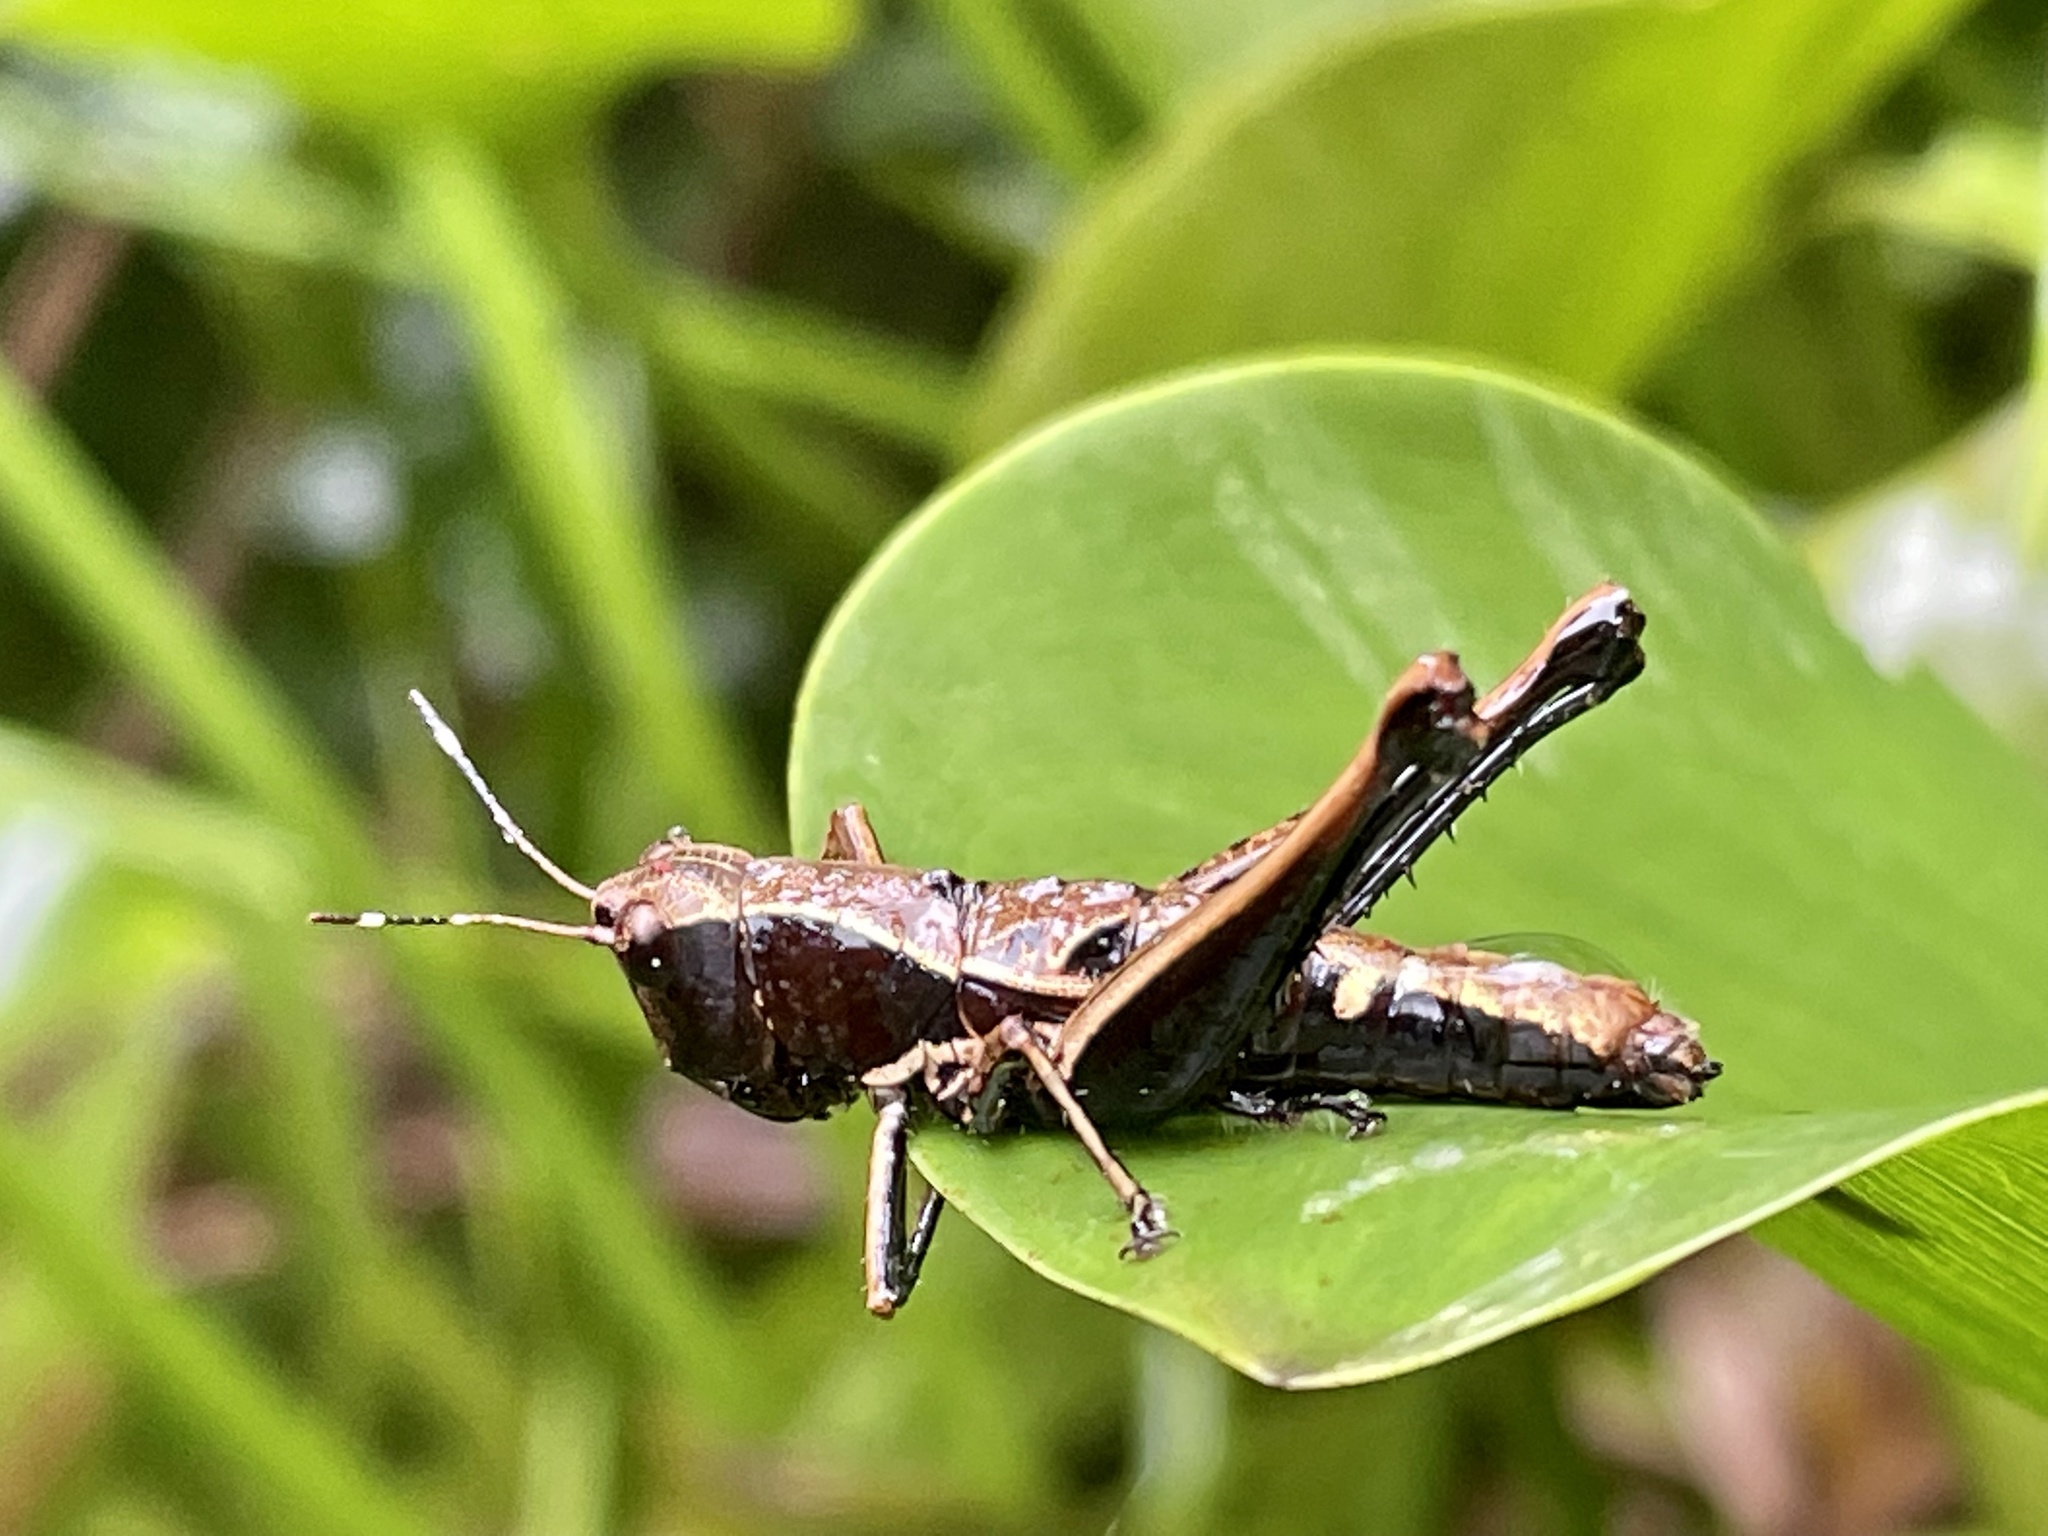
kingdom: Animalia
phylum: Arthropoda
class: Insecta
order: Orthoptera
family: Acrididae
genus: Microtylopteryx
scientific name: Microtylopteryx hebardi
